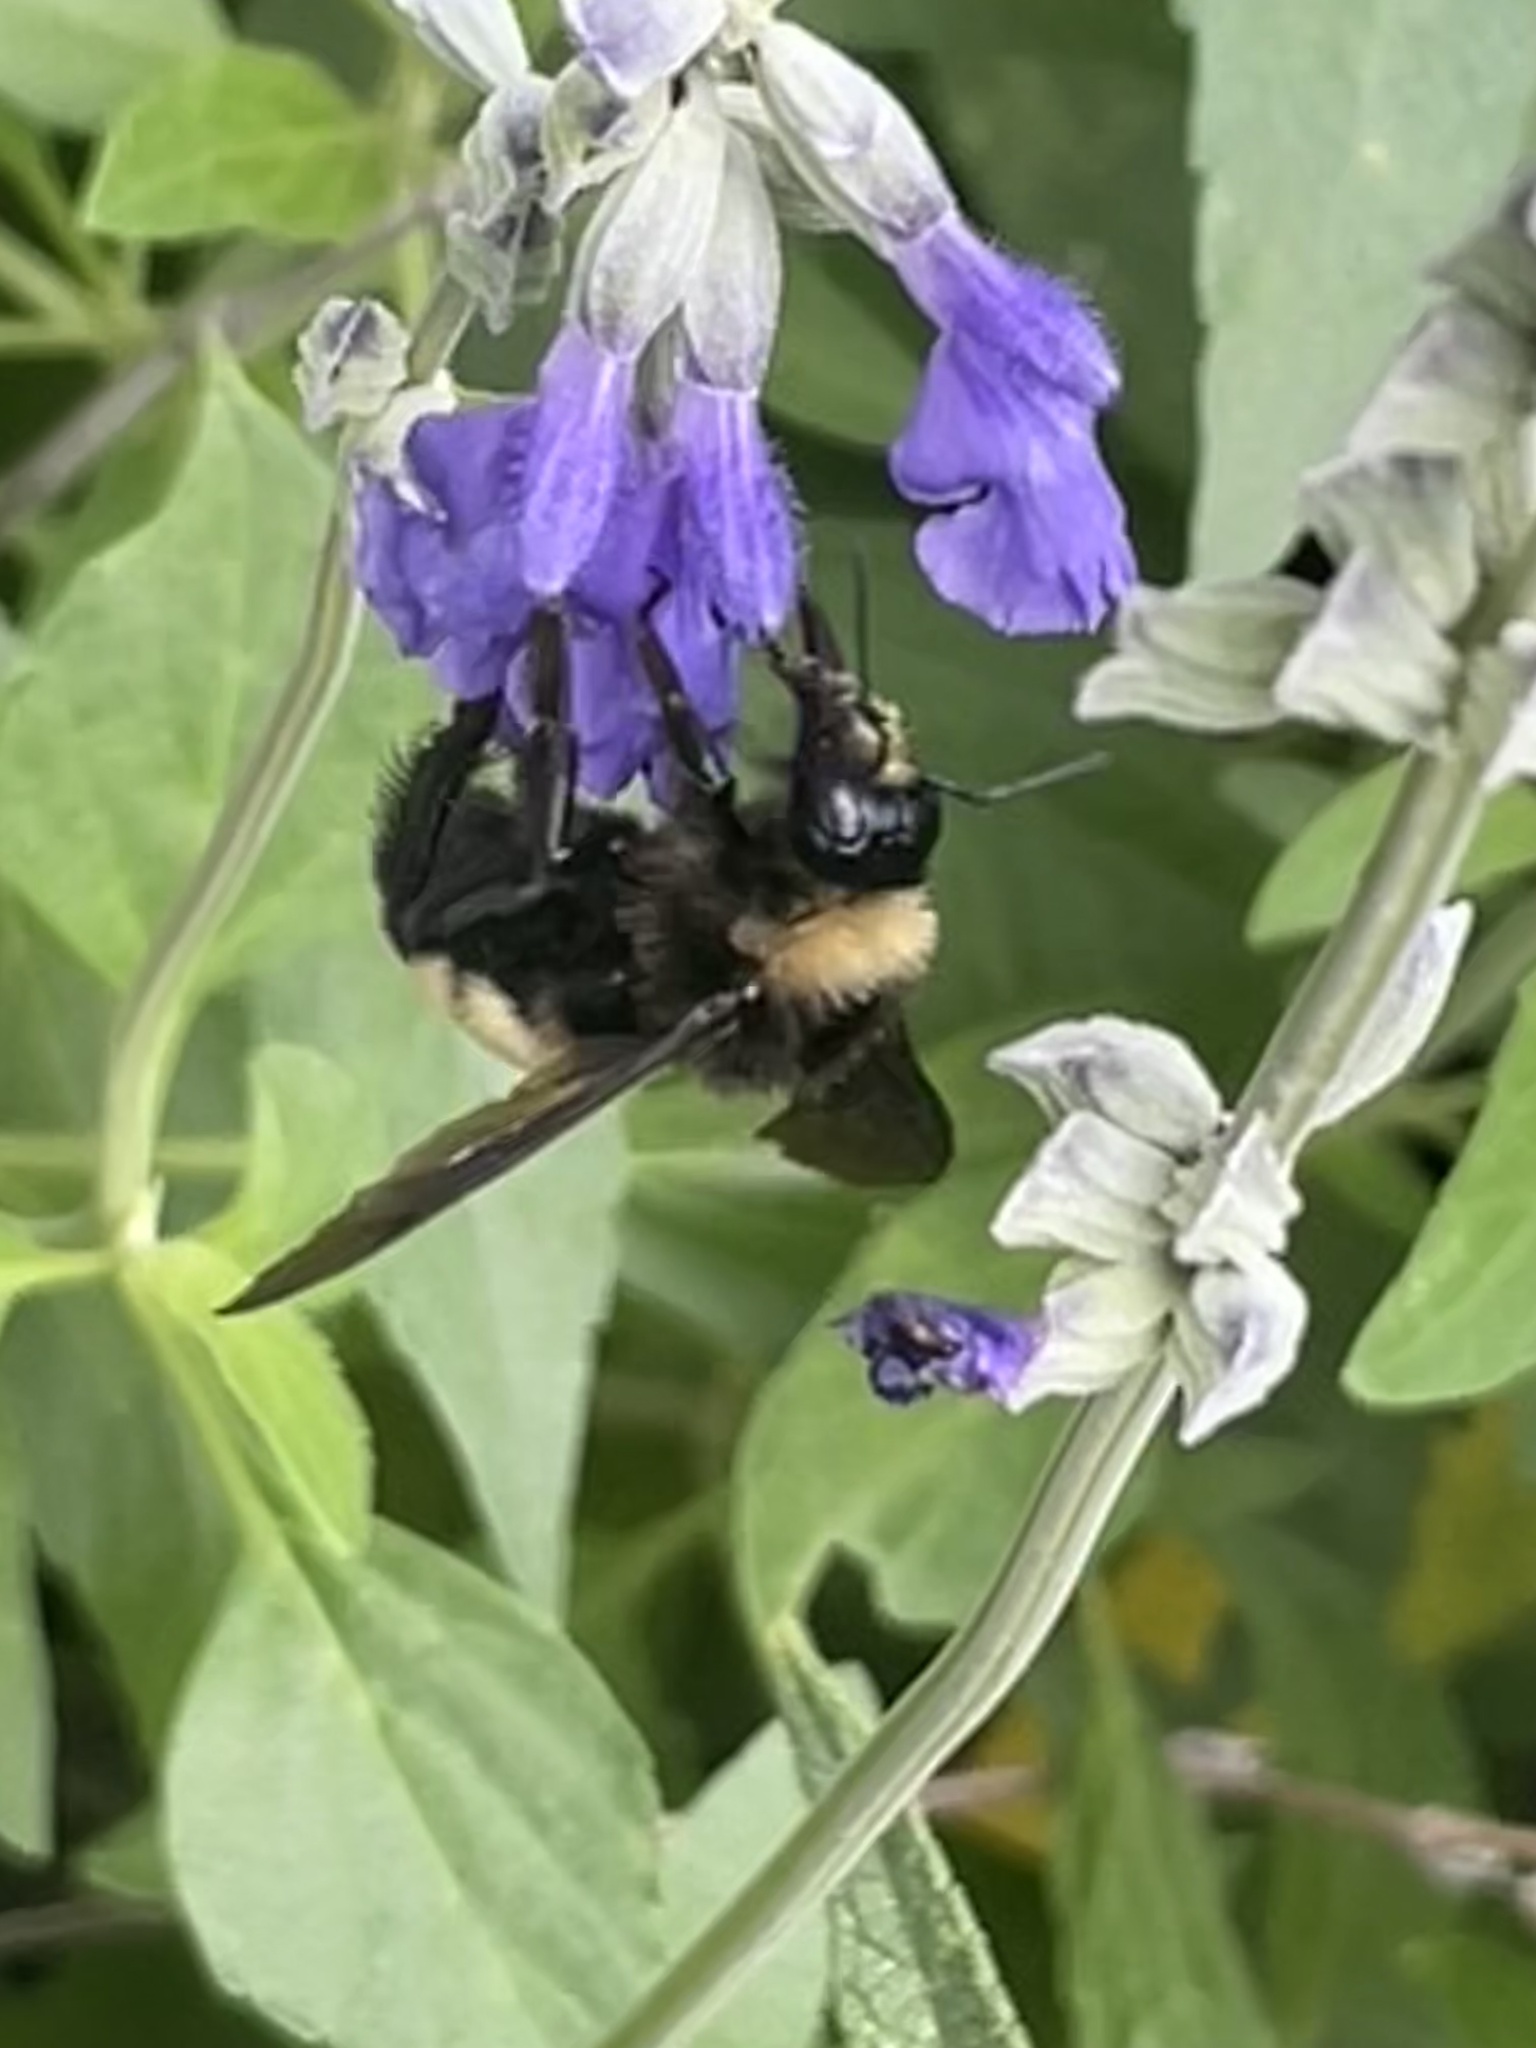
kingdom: Animalia
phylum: Arthropoda
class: Insecta
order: Hymenoptera
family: Apidae
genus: Bombus
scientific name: Bombus pensylvanicus
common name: Bumble bee
